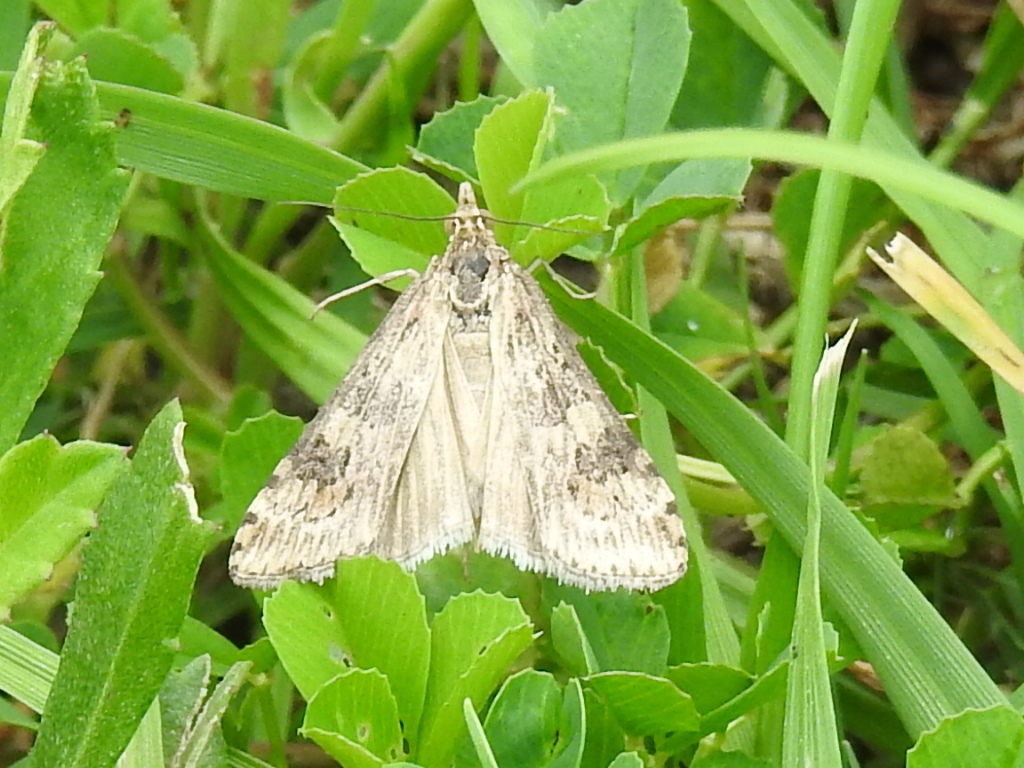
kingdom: Animalia
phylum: Arthropoda
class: Insecta
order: Lepidoptera
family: Crambidae
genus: Nomophila
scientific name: Nomophila nearctica
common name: American rush veneer
